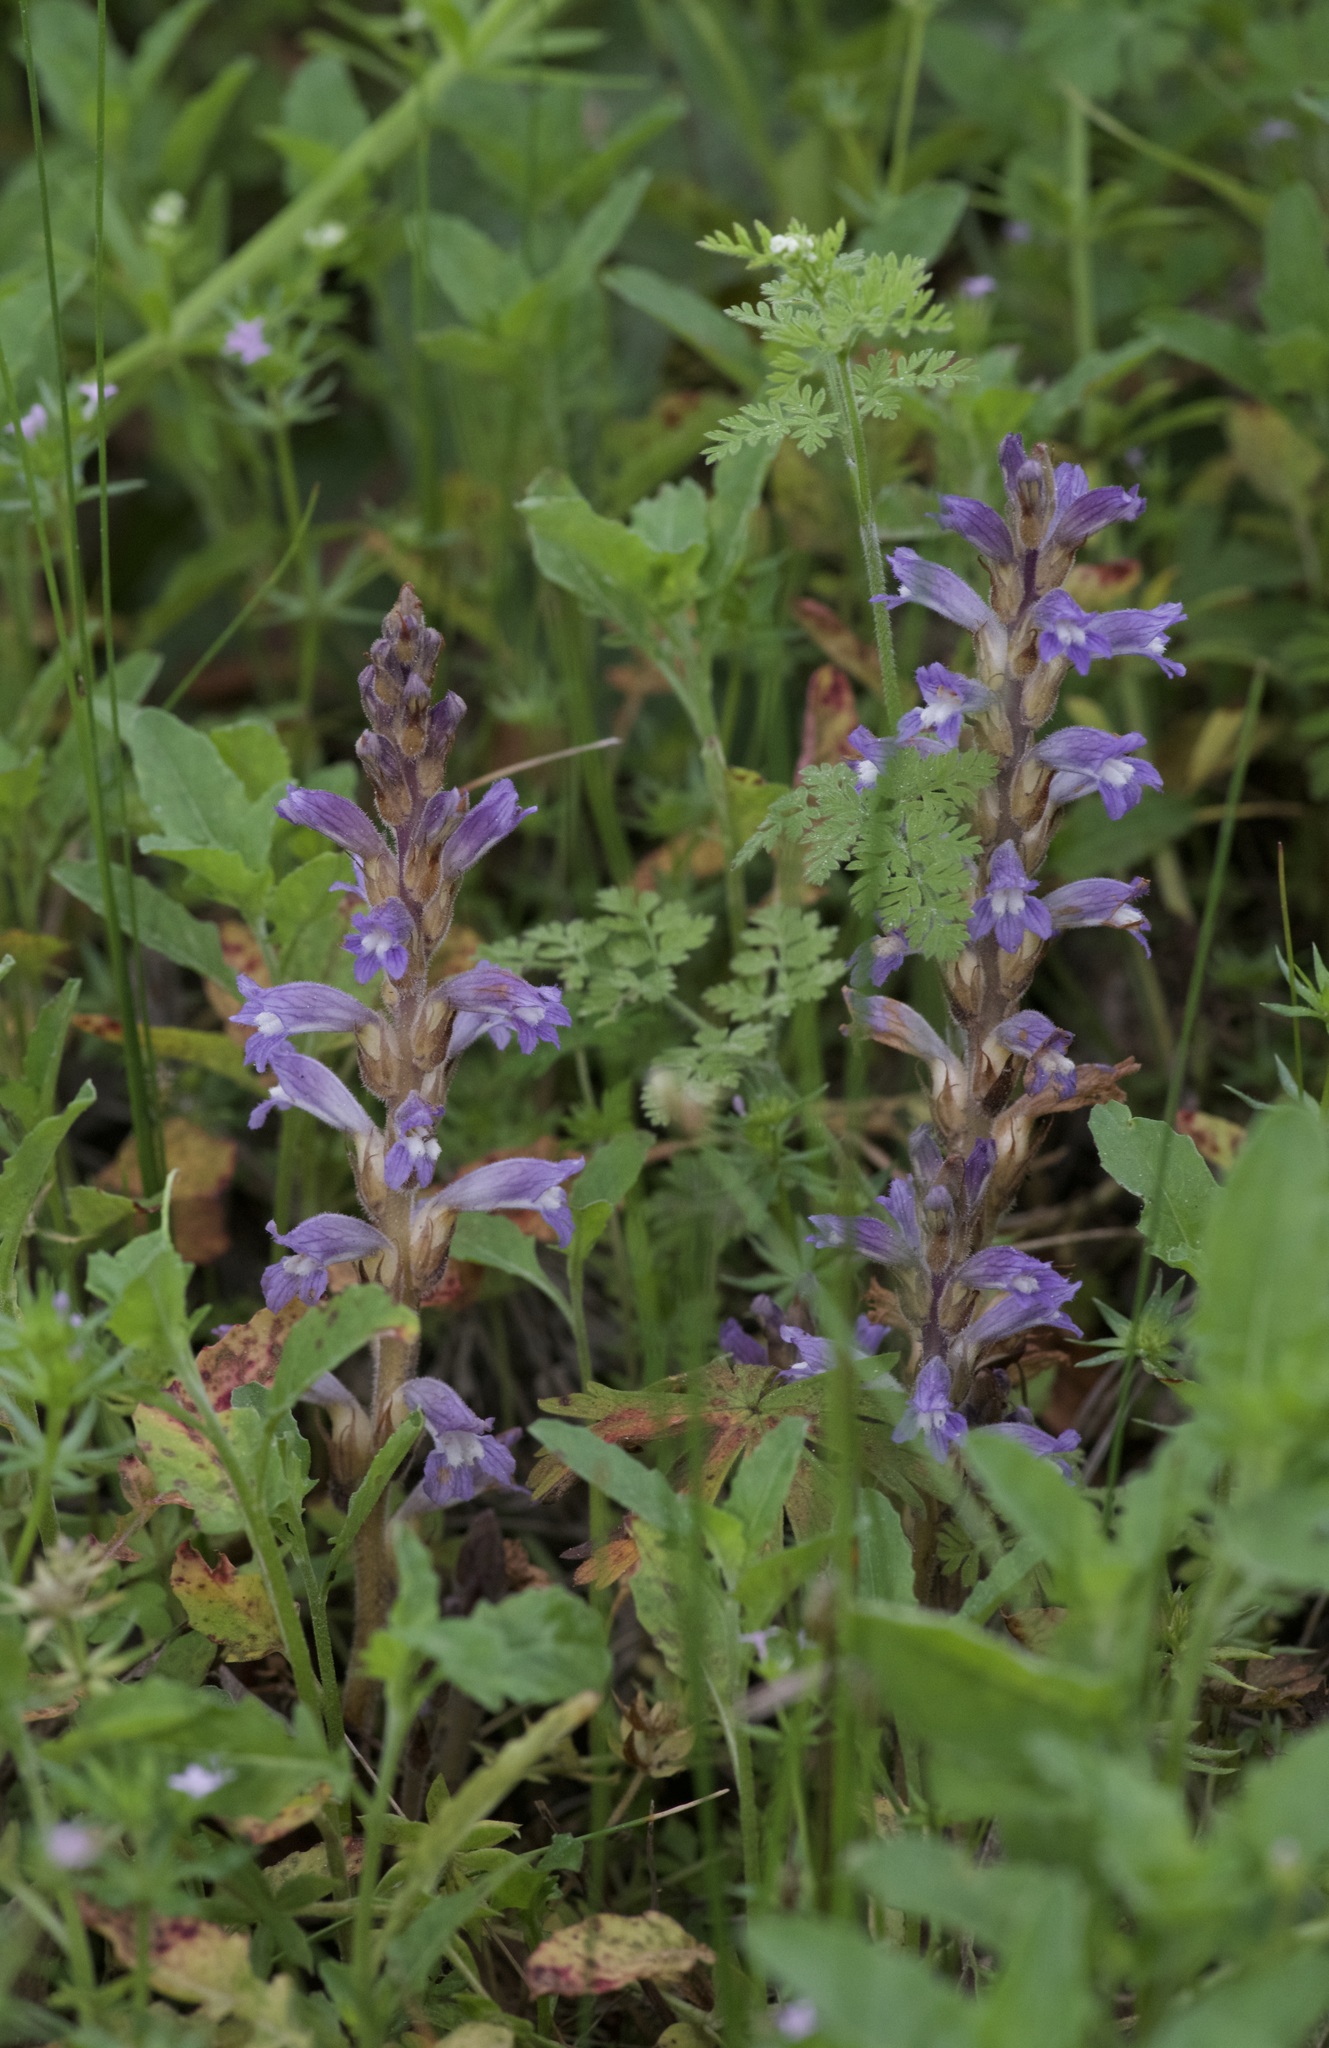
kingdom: Plantae
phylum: Tracheophyta
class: Magnoliopsida
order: Lamiales
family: Orobanchaceae
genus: Phelipanche
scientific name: Phelipanche mutelii
